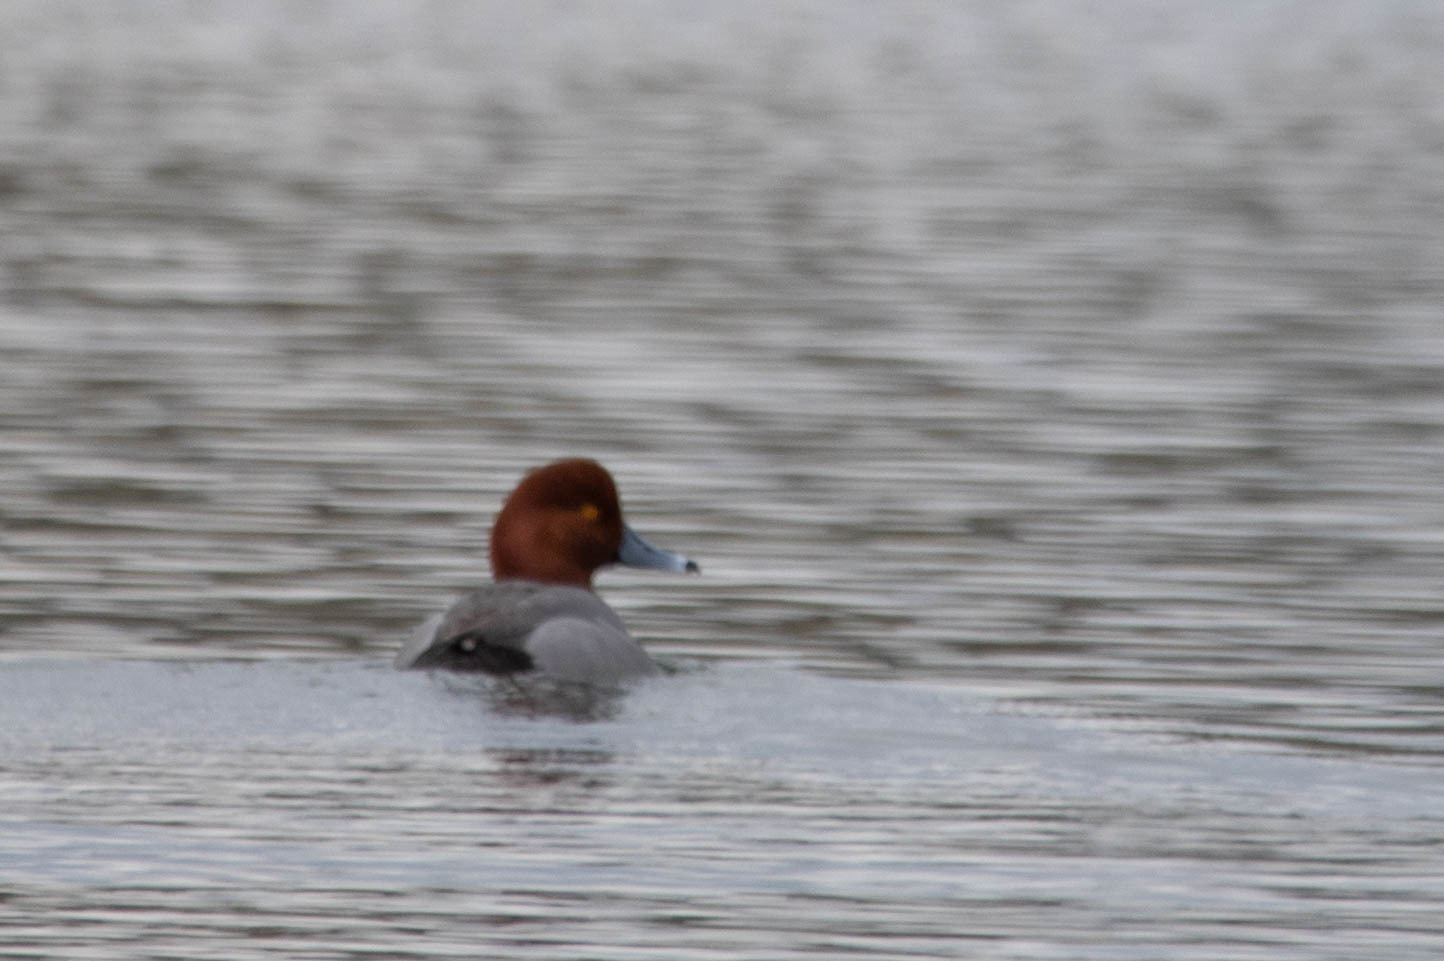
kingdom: Animalia
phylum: Chordata
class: Aves
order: Anseriformes
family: Anatidae
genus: Aythya
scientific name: Aythya americana
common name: Redhead
